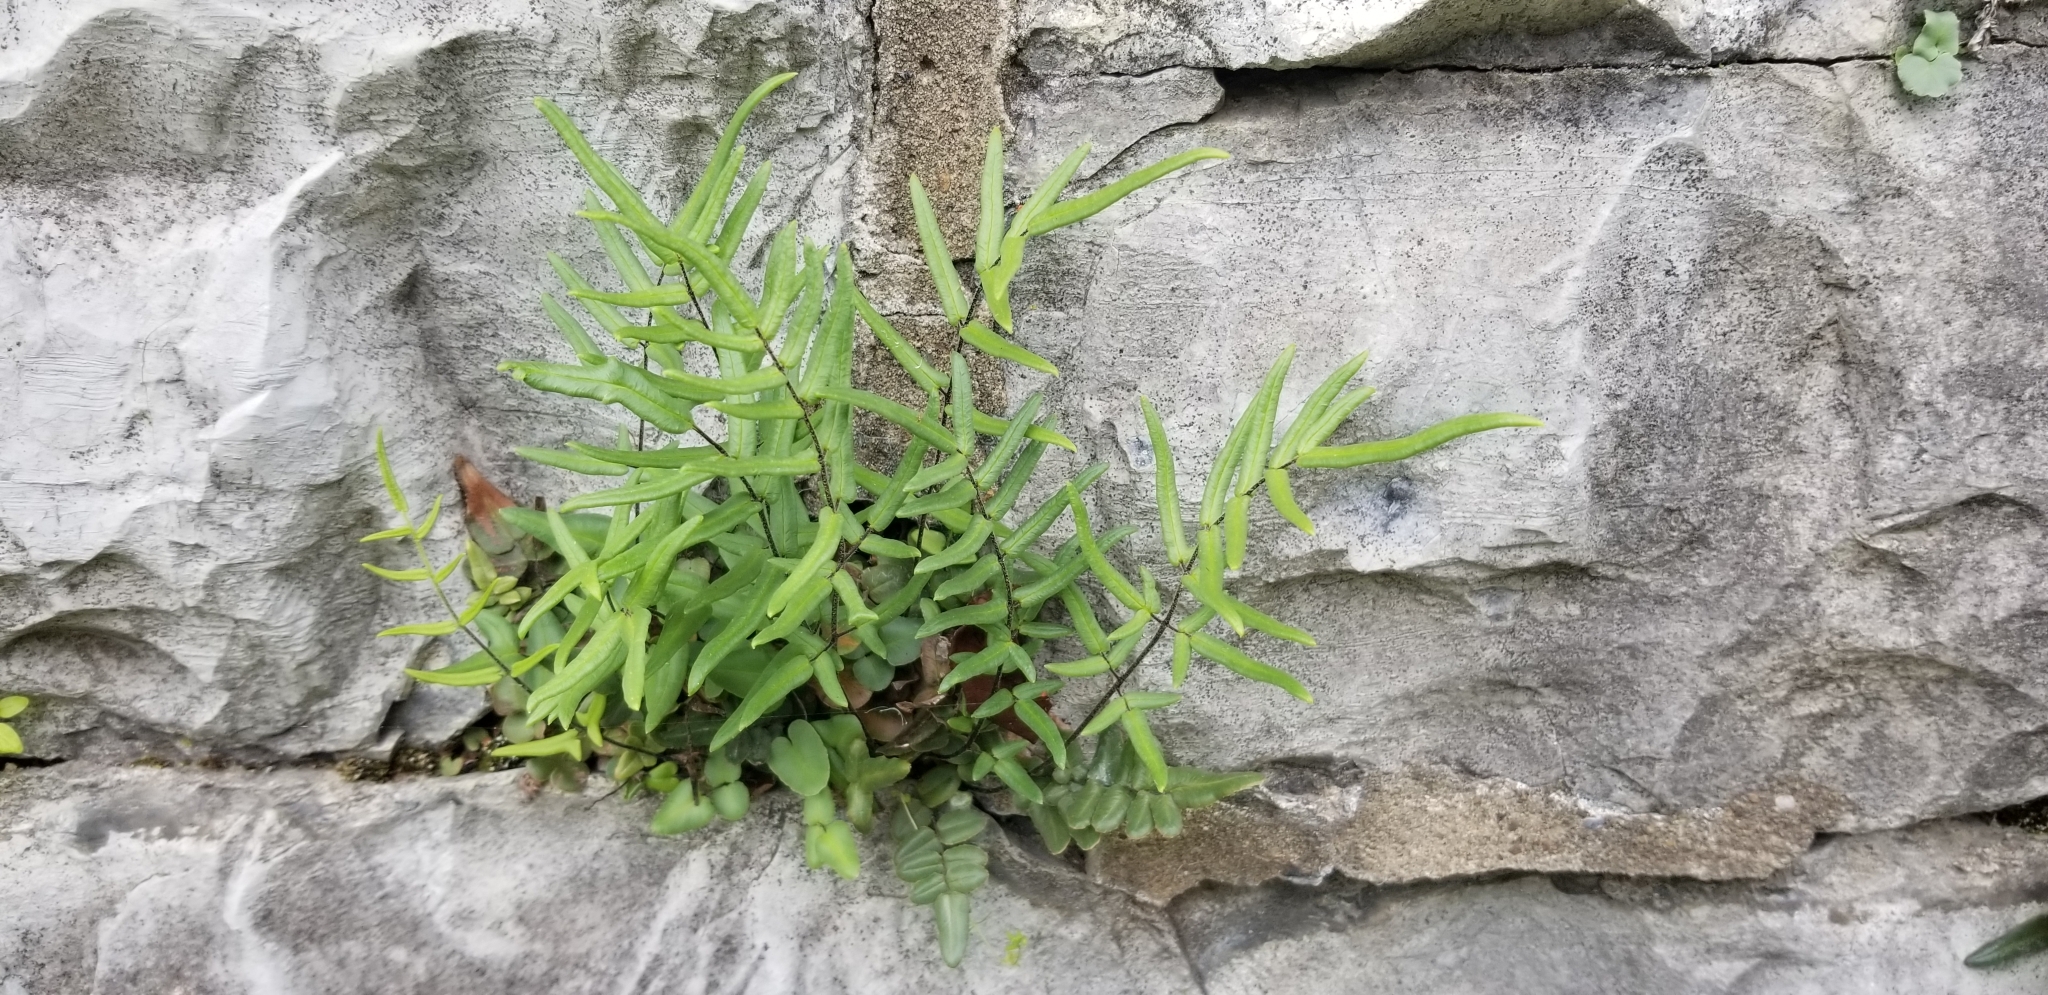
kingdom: Plantae
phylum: Tracheophyta
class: Polypodiopsida
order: Polypodiales
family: Pteridaceae
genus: Pellaea
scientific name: Pellaea atropurpurea
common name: Hairy cliffbrake
